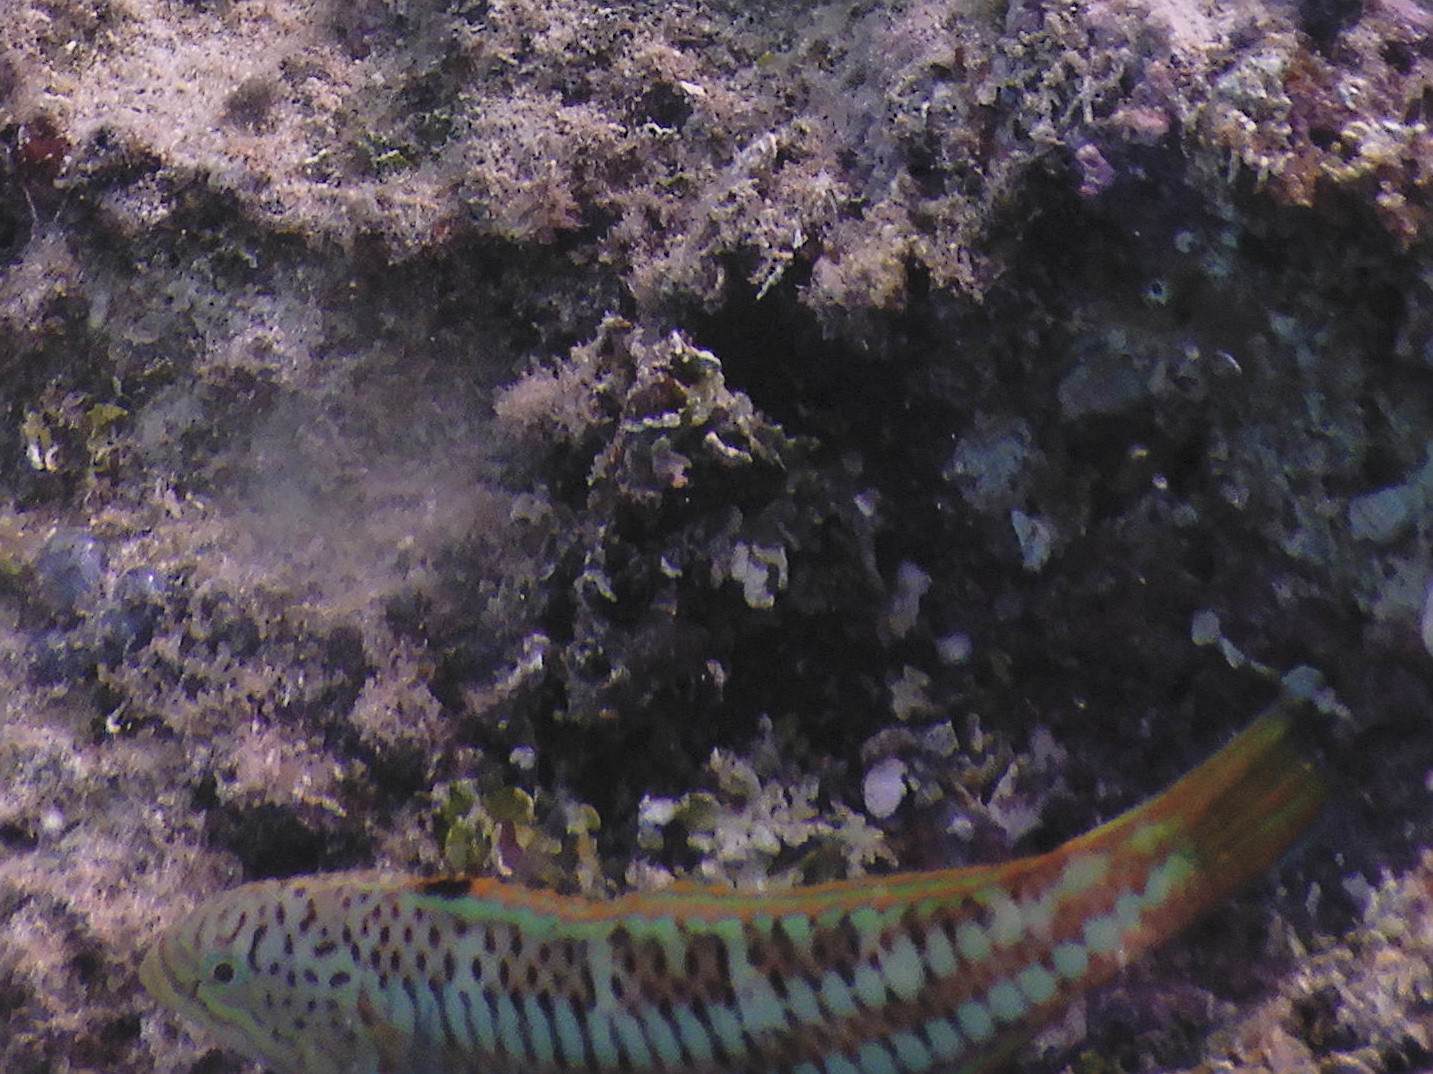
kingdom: Animalia
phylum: Chordata
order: Perciformes
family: Labridae
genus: Thalassoma
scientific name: Thalassoma purpureum
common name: Parrotfish
